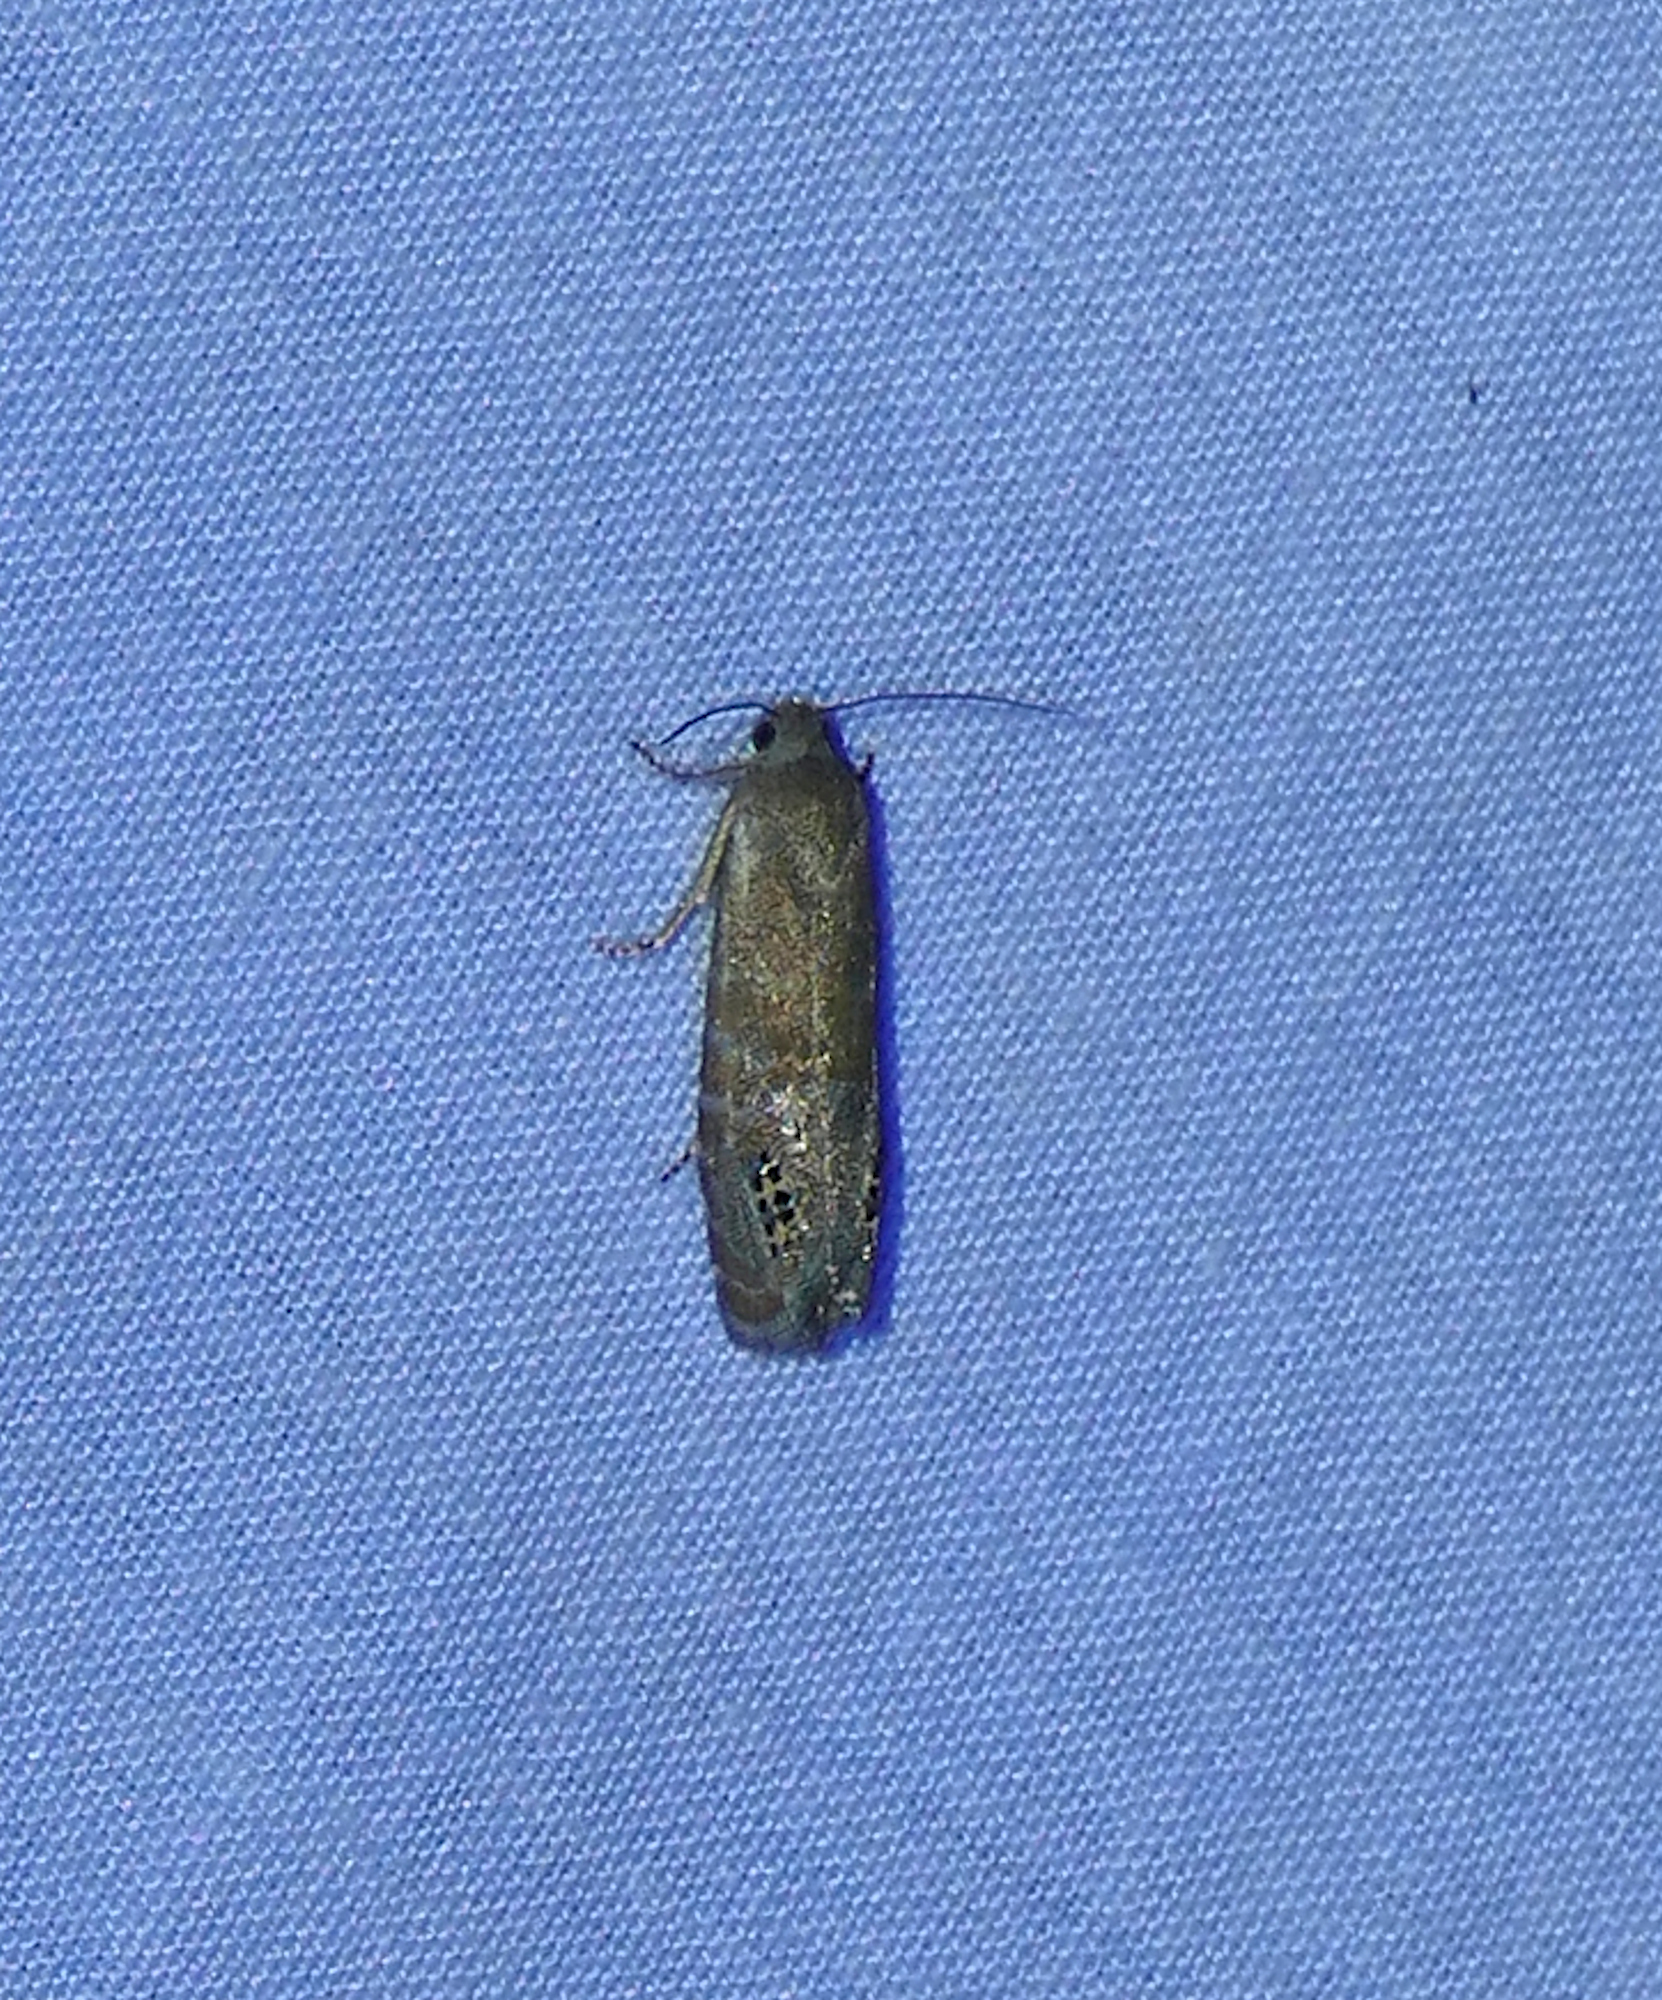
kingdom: Animalia
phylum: Arthropoda
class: Insecta
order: Lepidoptera
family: Tortricidae
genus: Pelochrista
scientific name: Pelochrista scintillana
